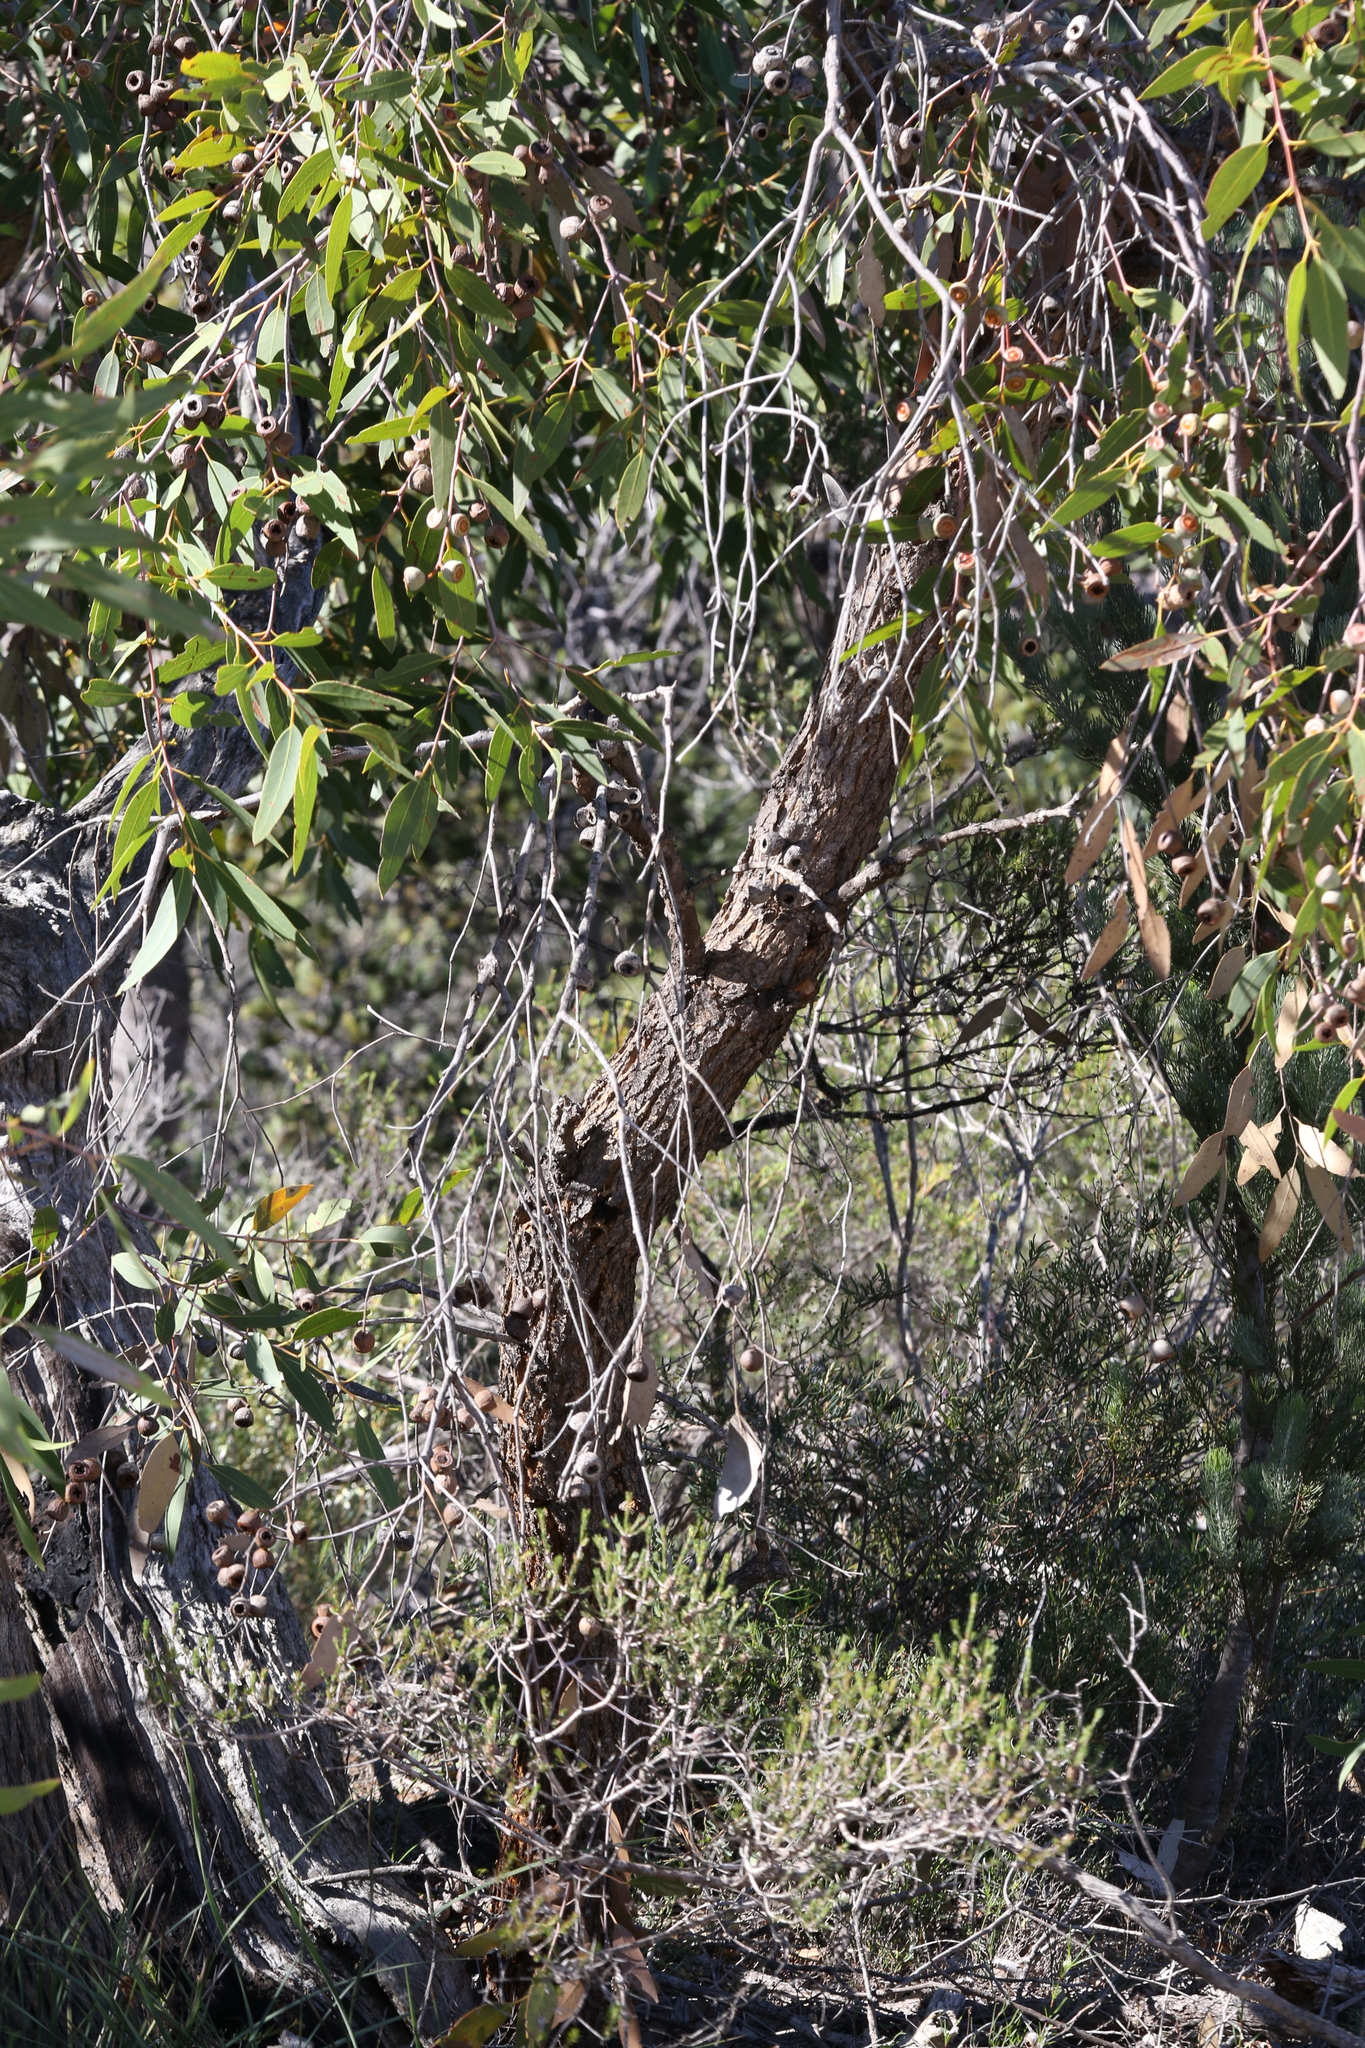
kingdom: Plantae
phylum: Tracheophyta
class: Magnoliopsida
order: Myrtales
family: Myrtaceae
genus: Eucalyptus
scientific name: Eucalyptus todtiana
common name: Coastal blackbutt
